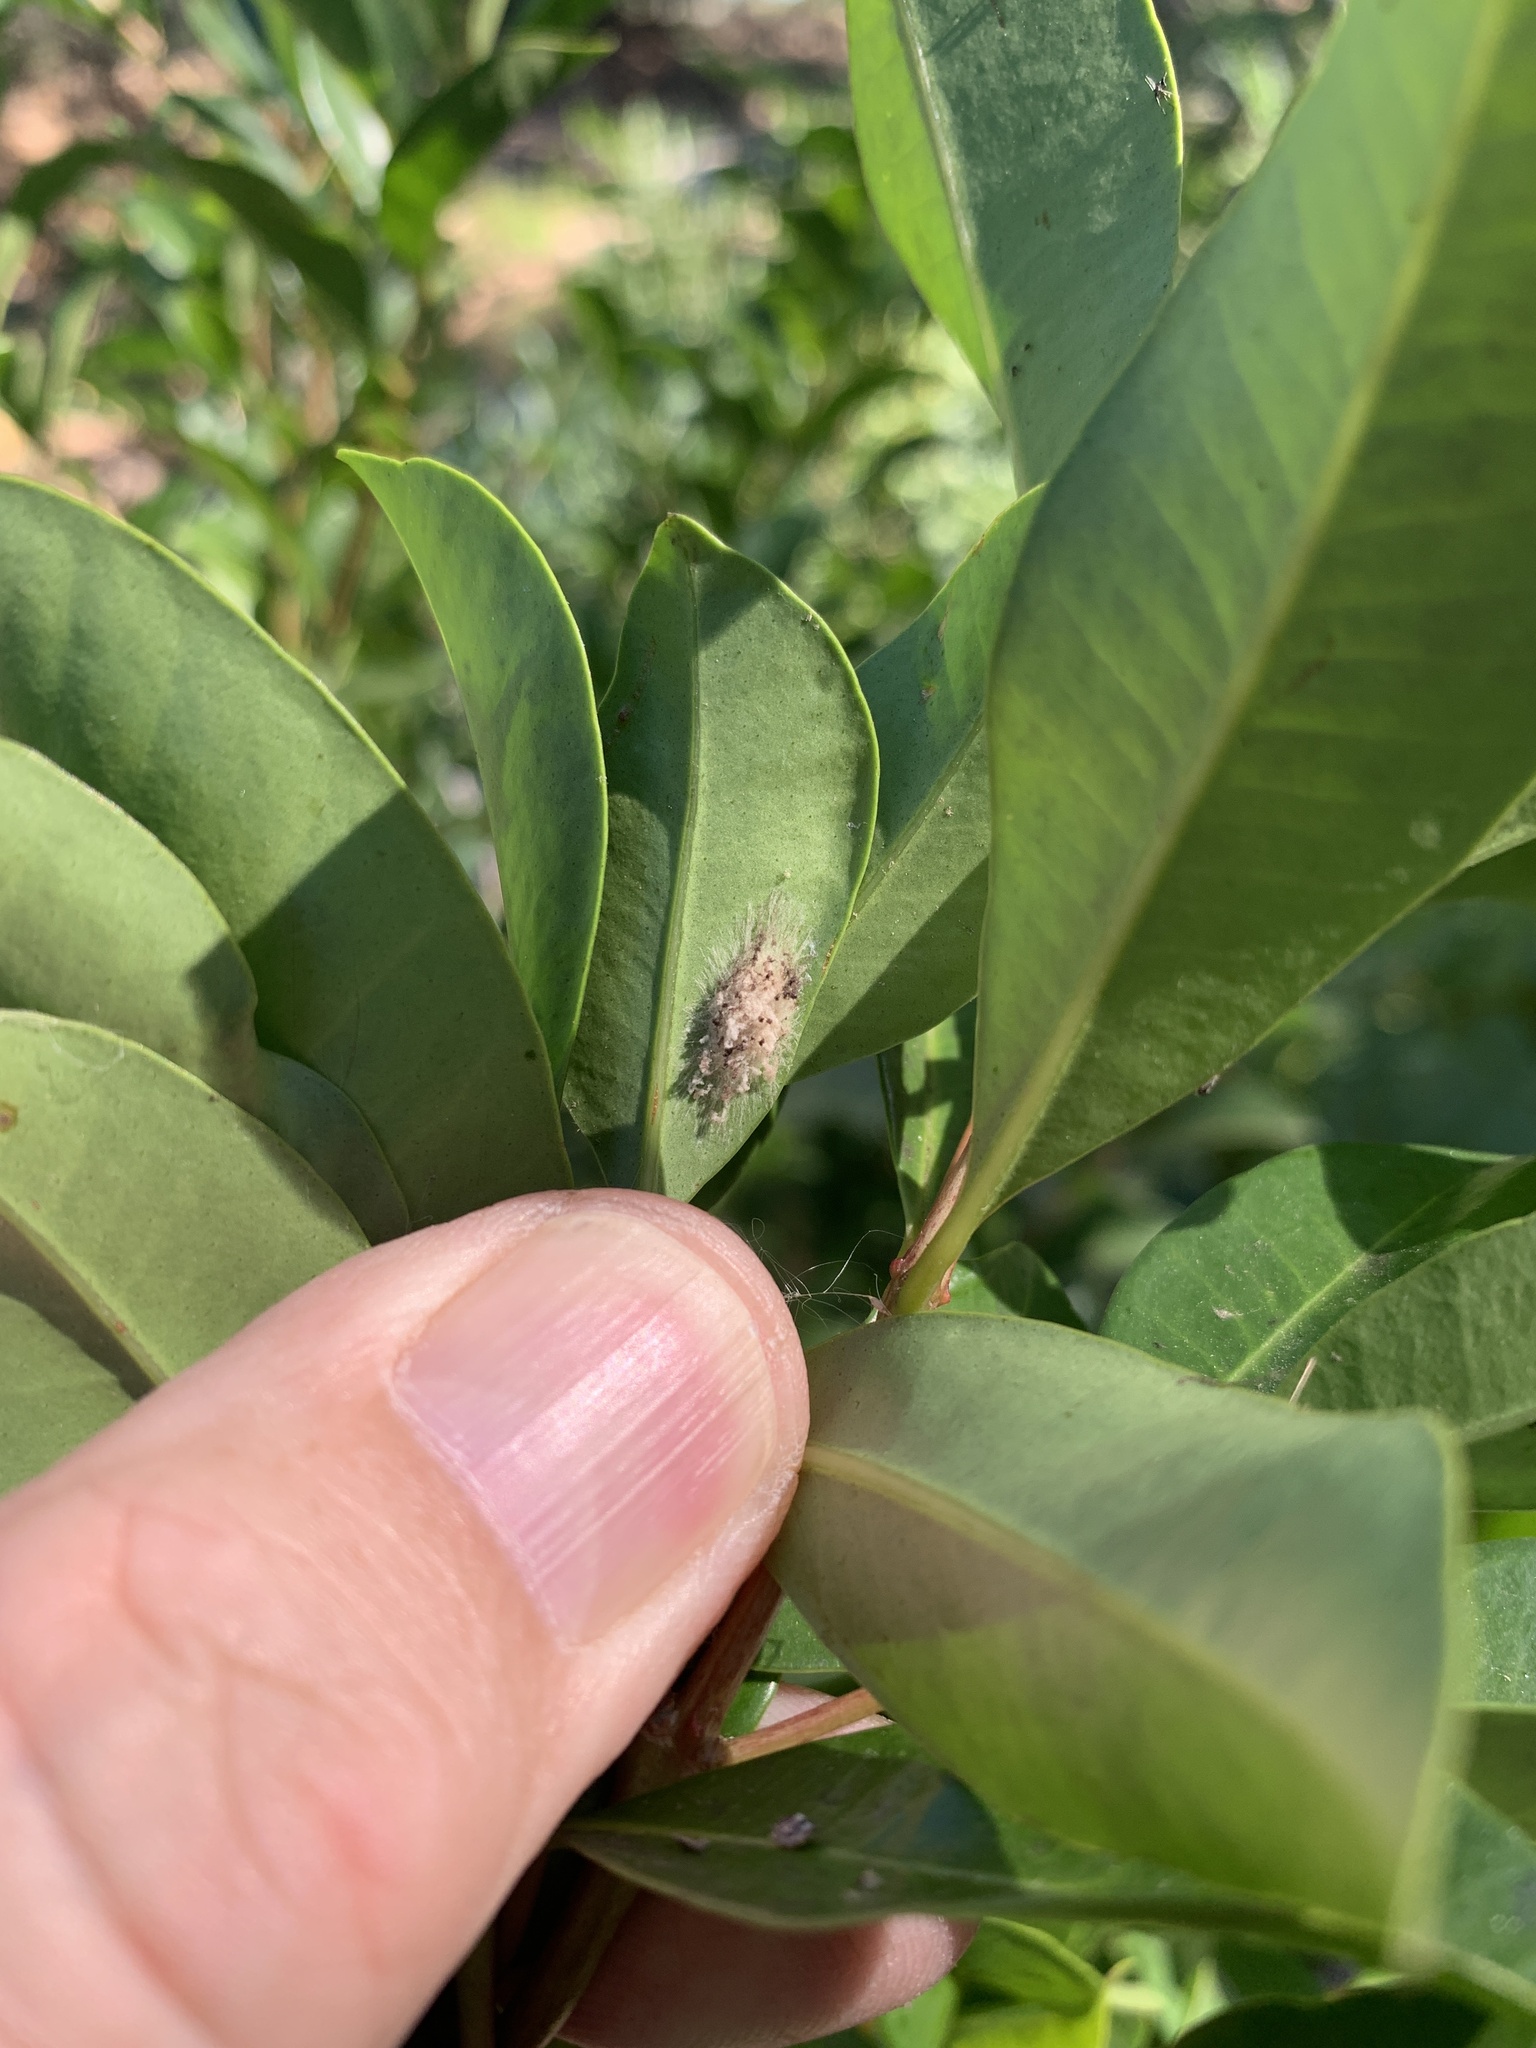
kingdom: Plantae
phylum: Tracheophyta
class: Magnoliopsida
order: Myrtales
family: Myrtaceae
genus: Syzygium
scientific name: Syzygium australe
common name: Australian brush-cherry
